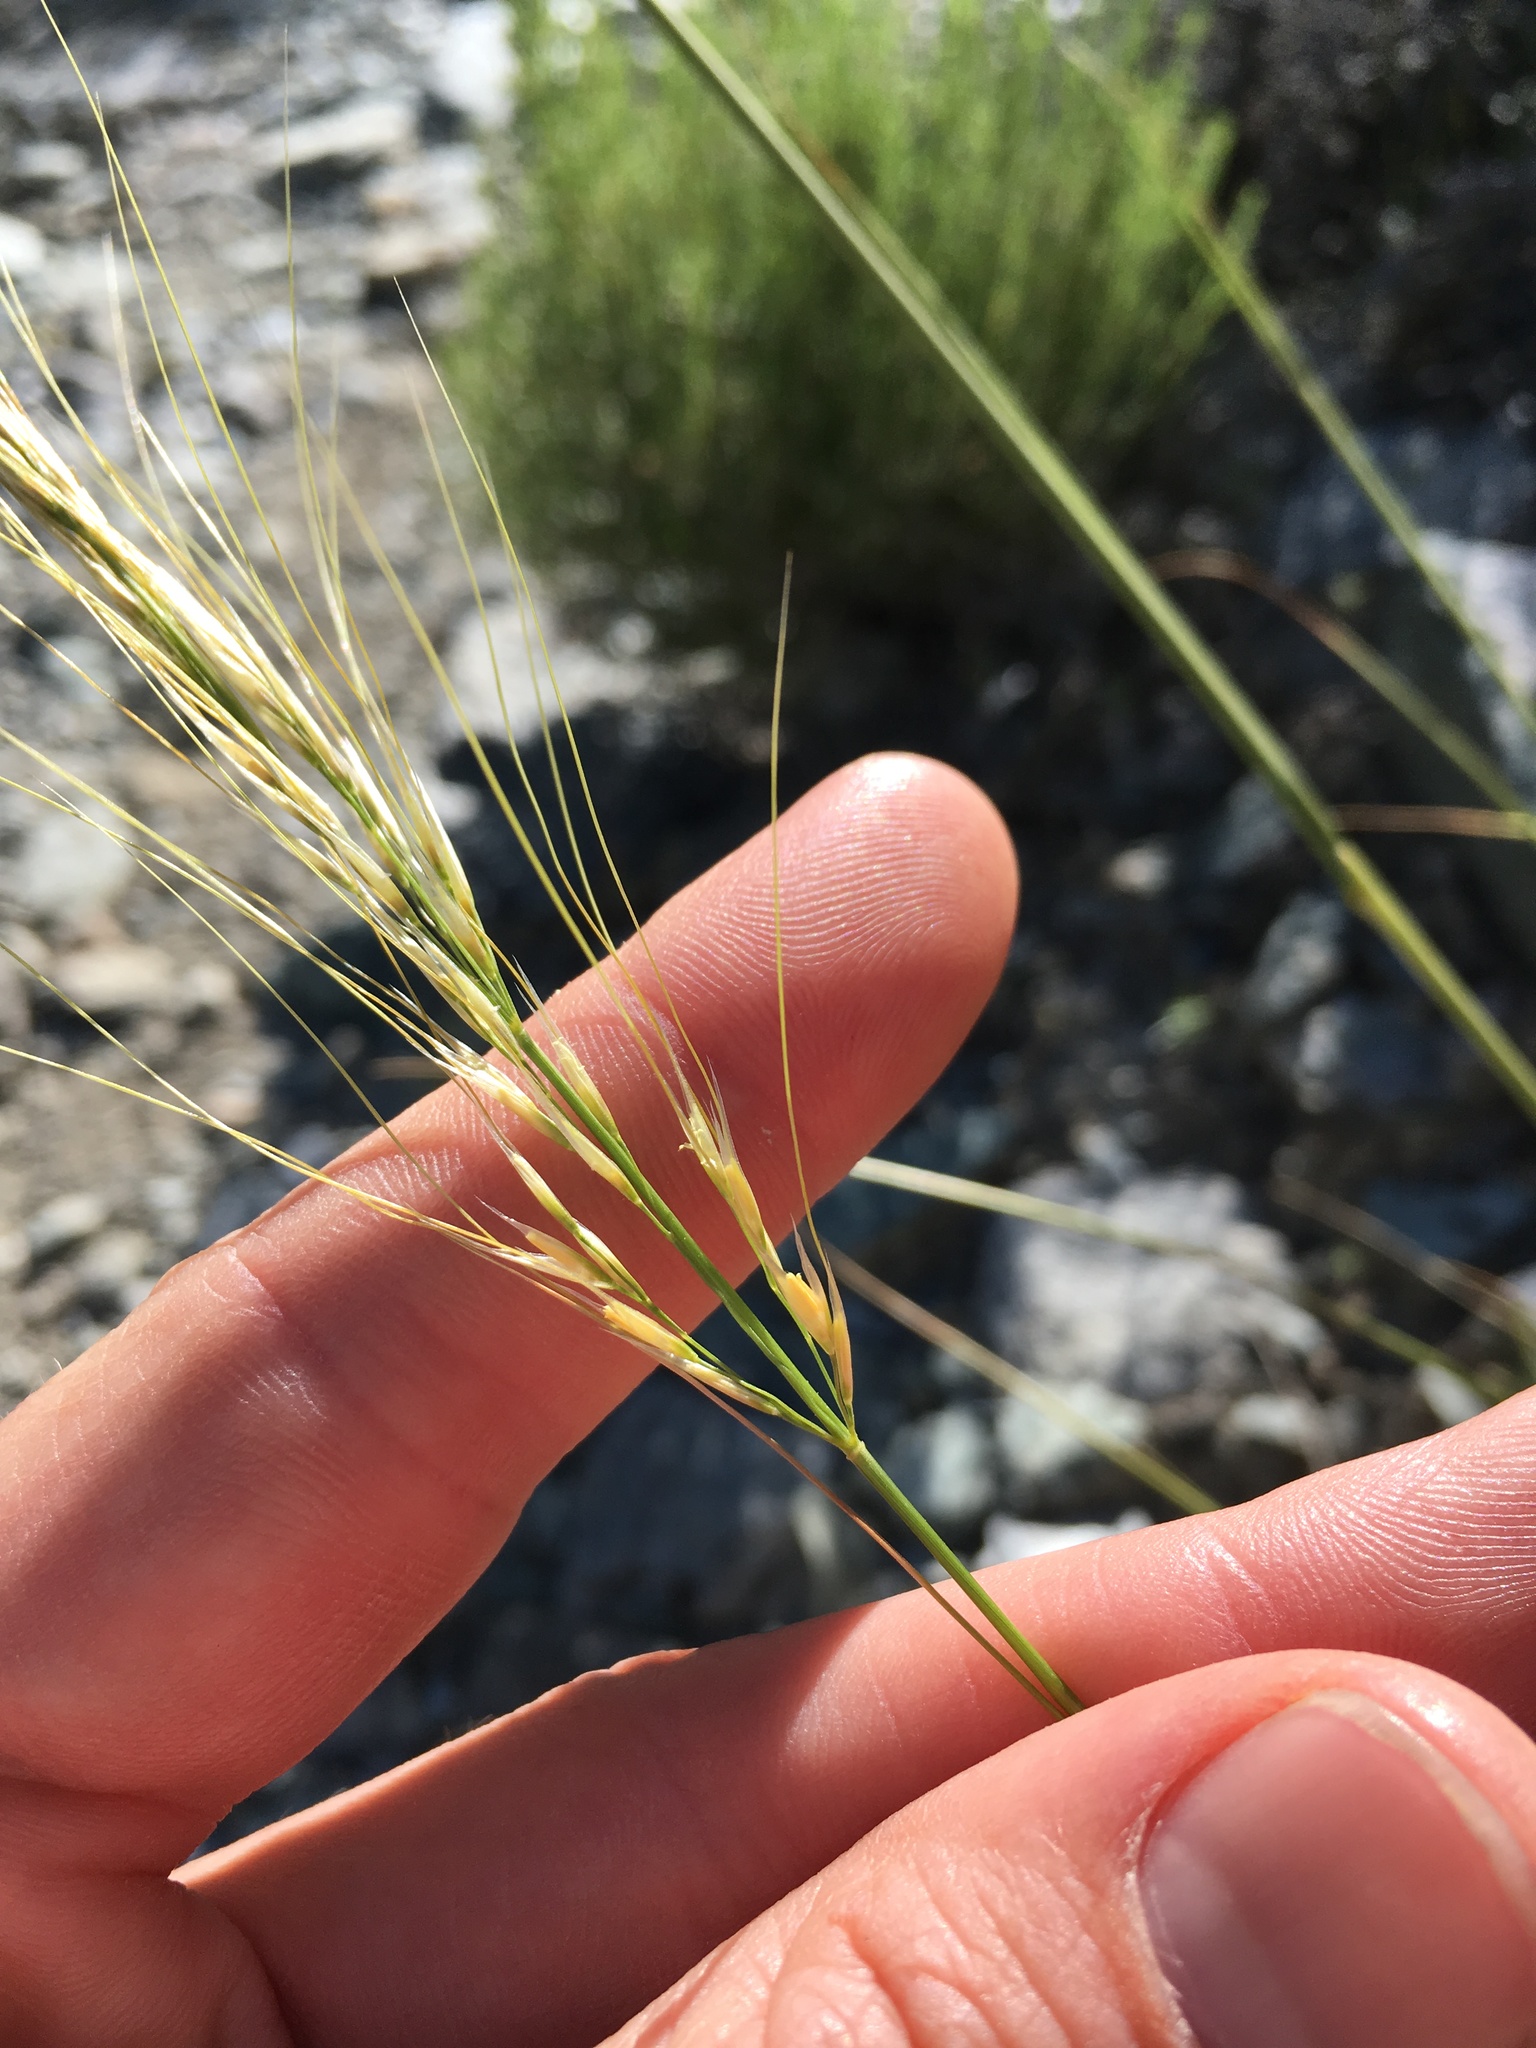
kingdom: Plantae
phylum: Tracheophyta
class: Liliopsida
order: Poales
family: Poaceae
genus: Eriocoma
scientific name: Eriocoma arida
